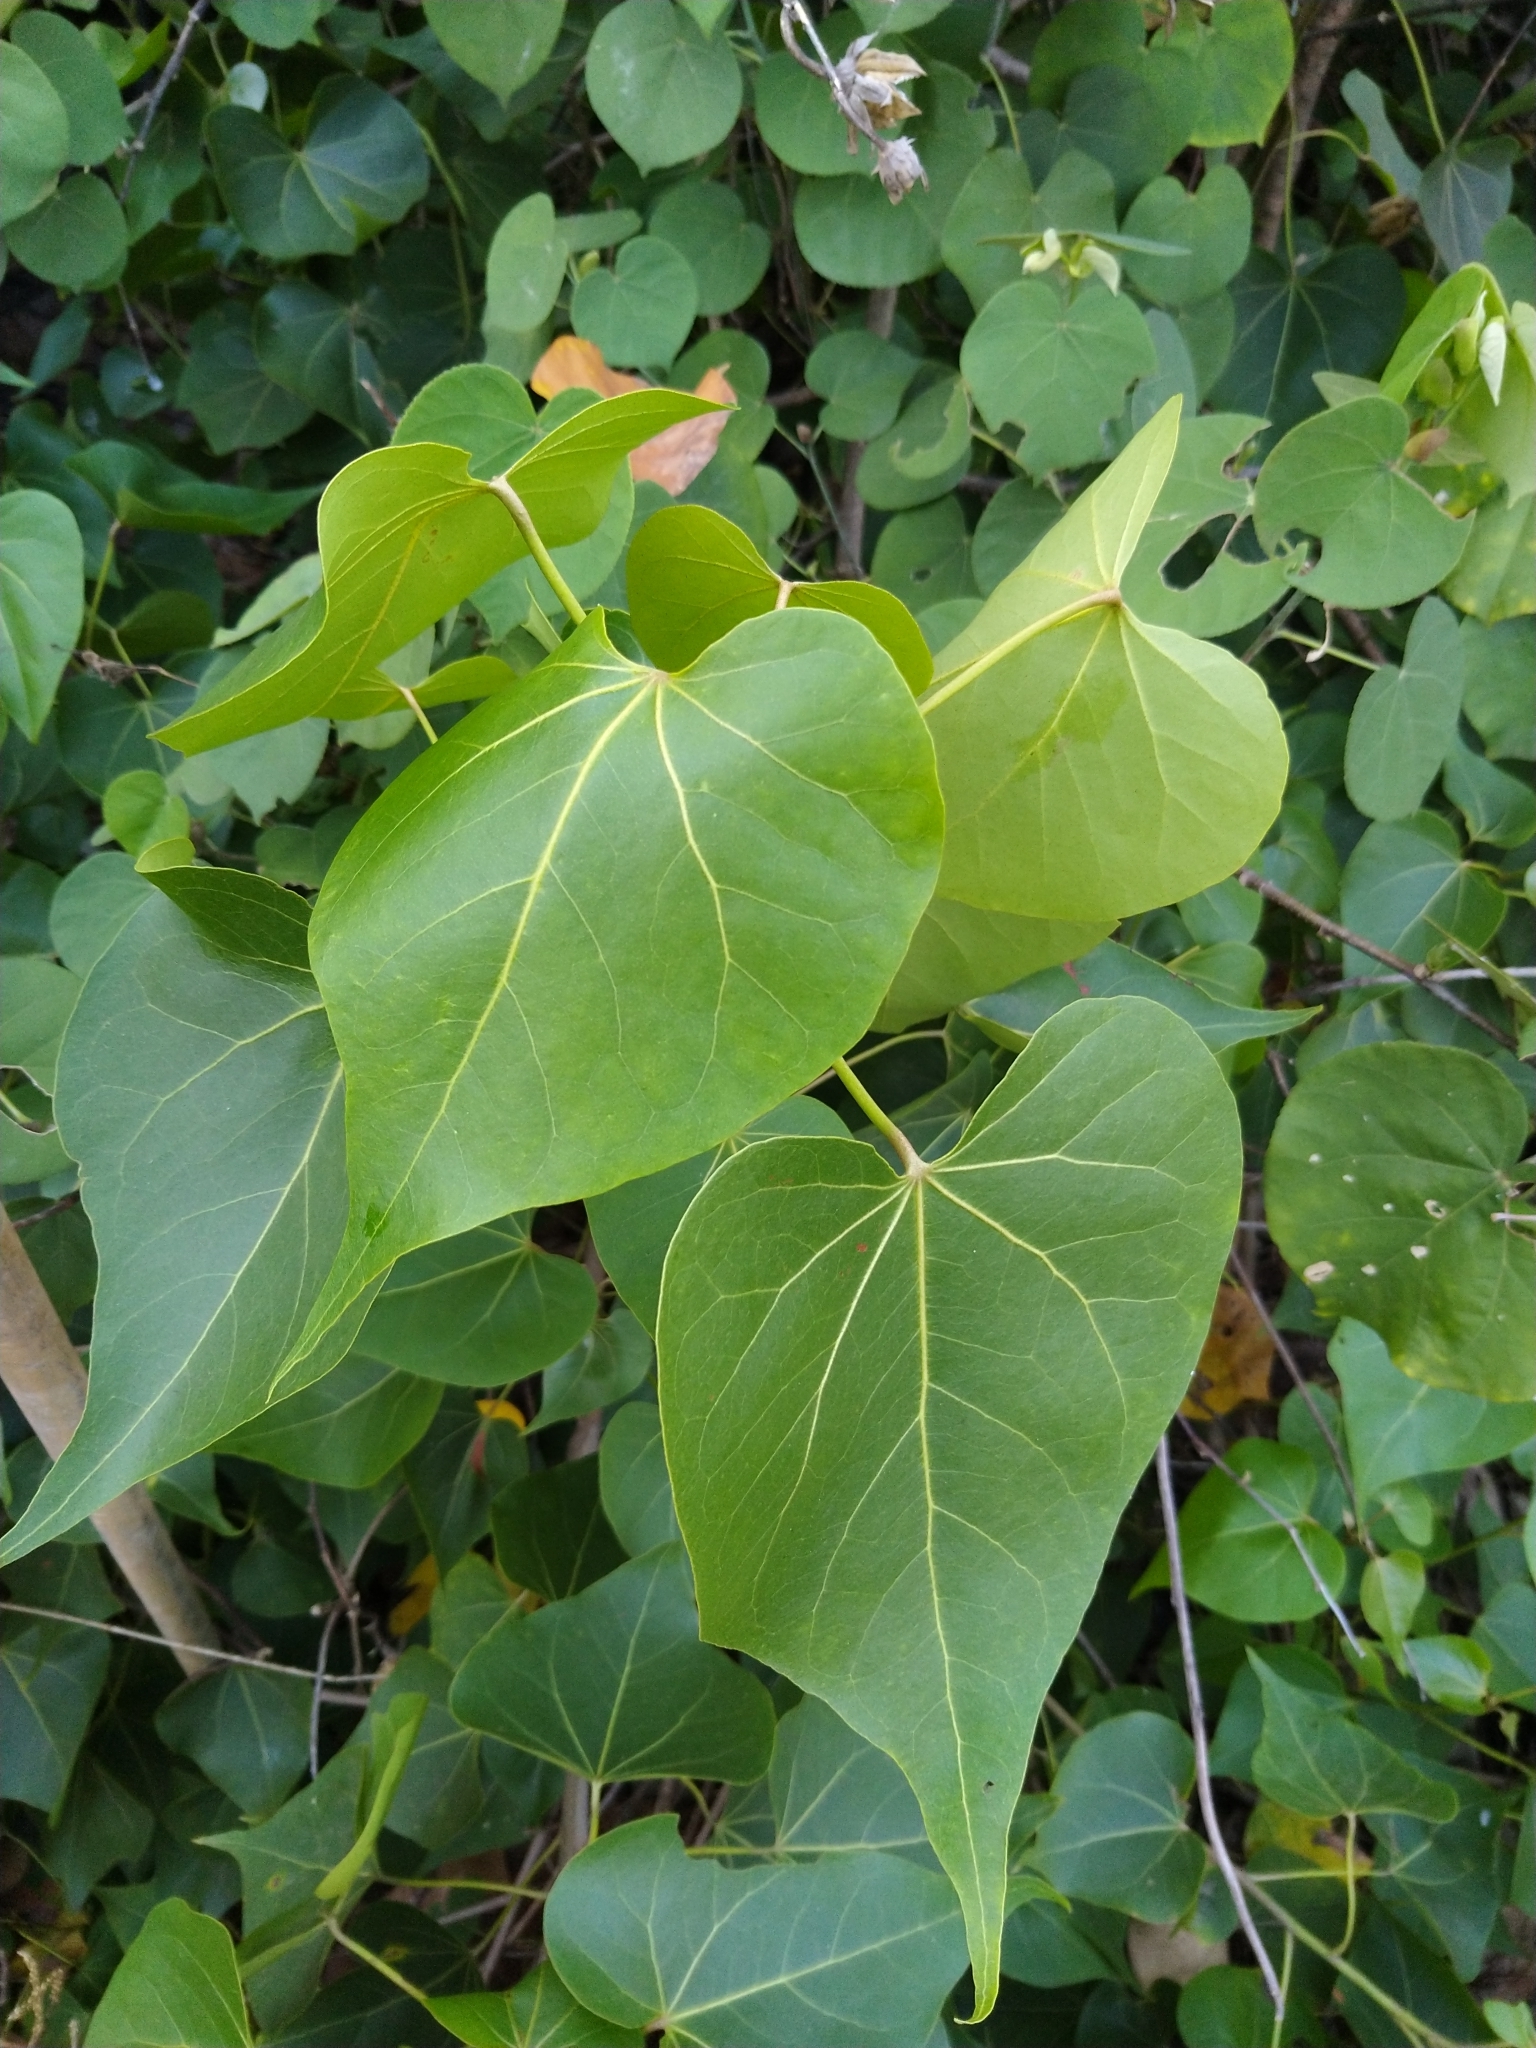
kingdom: Plantae
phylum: Tracheophyta
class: Magnoliopsida
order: Malvales
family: Malvaceae
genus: Thespesia
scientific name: Thespesia populnea
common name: Seaside mahoe
